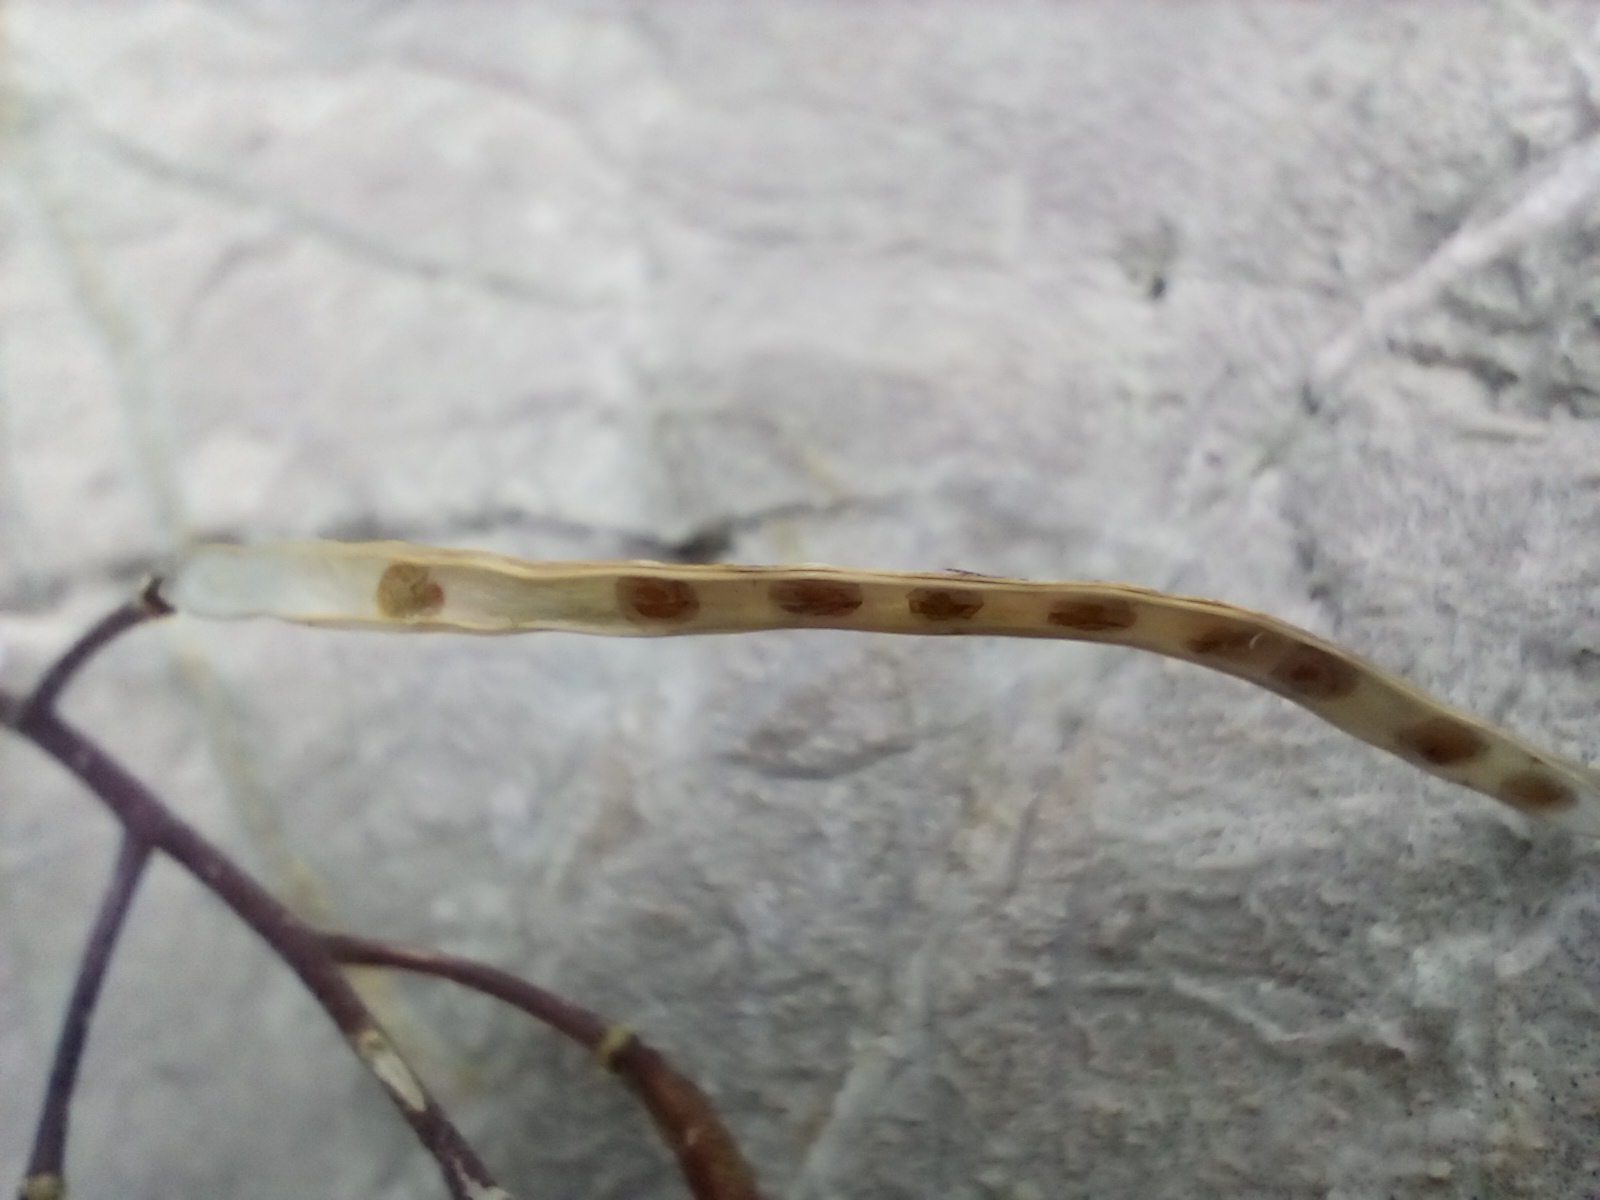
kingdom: Plantae
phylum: Tracheophyta
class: Magnoliopsida
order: Brassicales
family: Brassicaceae
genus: Arabis
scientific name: Arabis alpina
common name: Alpine rock-cress
